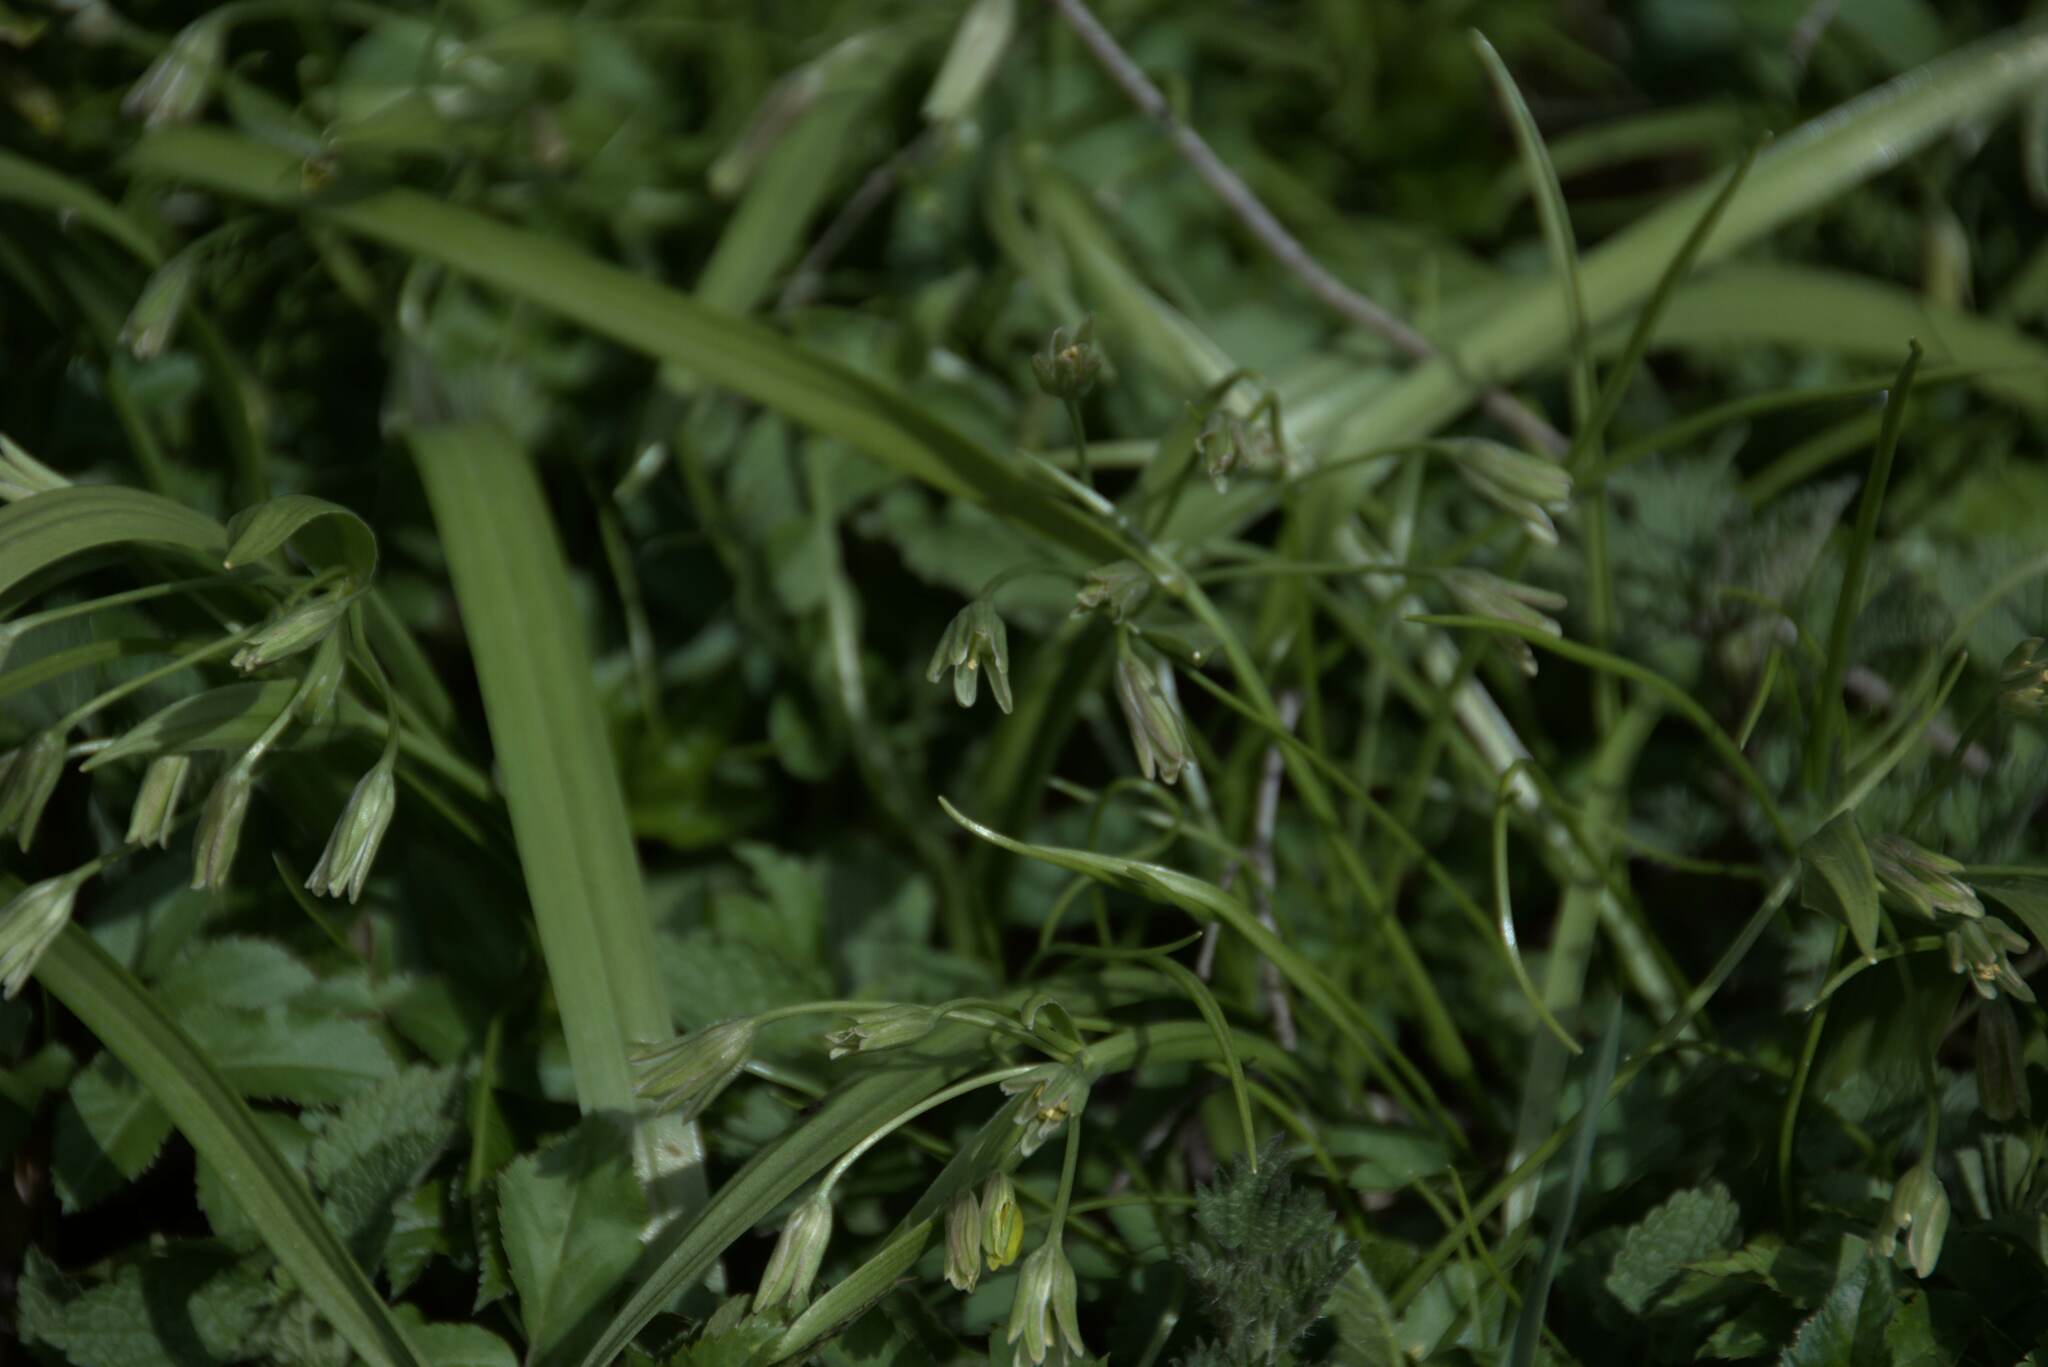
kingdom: Plantae
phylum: Tracheophyta
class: Liliopsida
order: Liliales
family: Liliaceae
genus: Gagea
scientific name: Gagea lutea
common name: Yellow star-of-bethlehem
